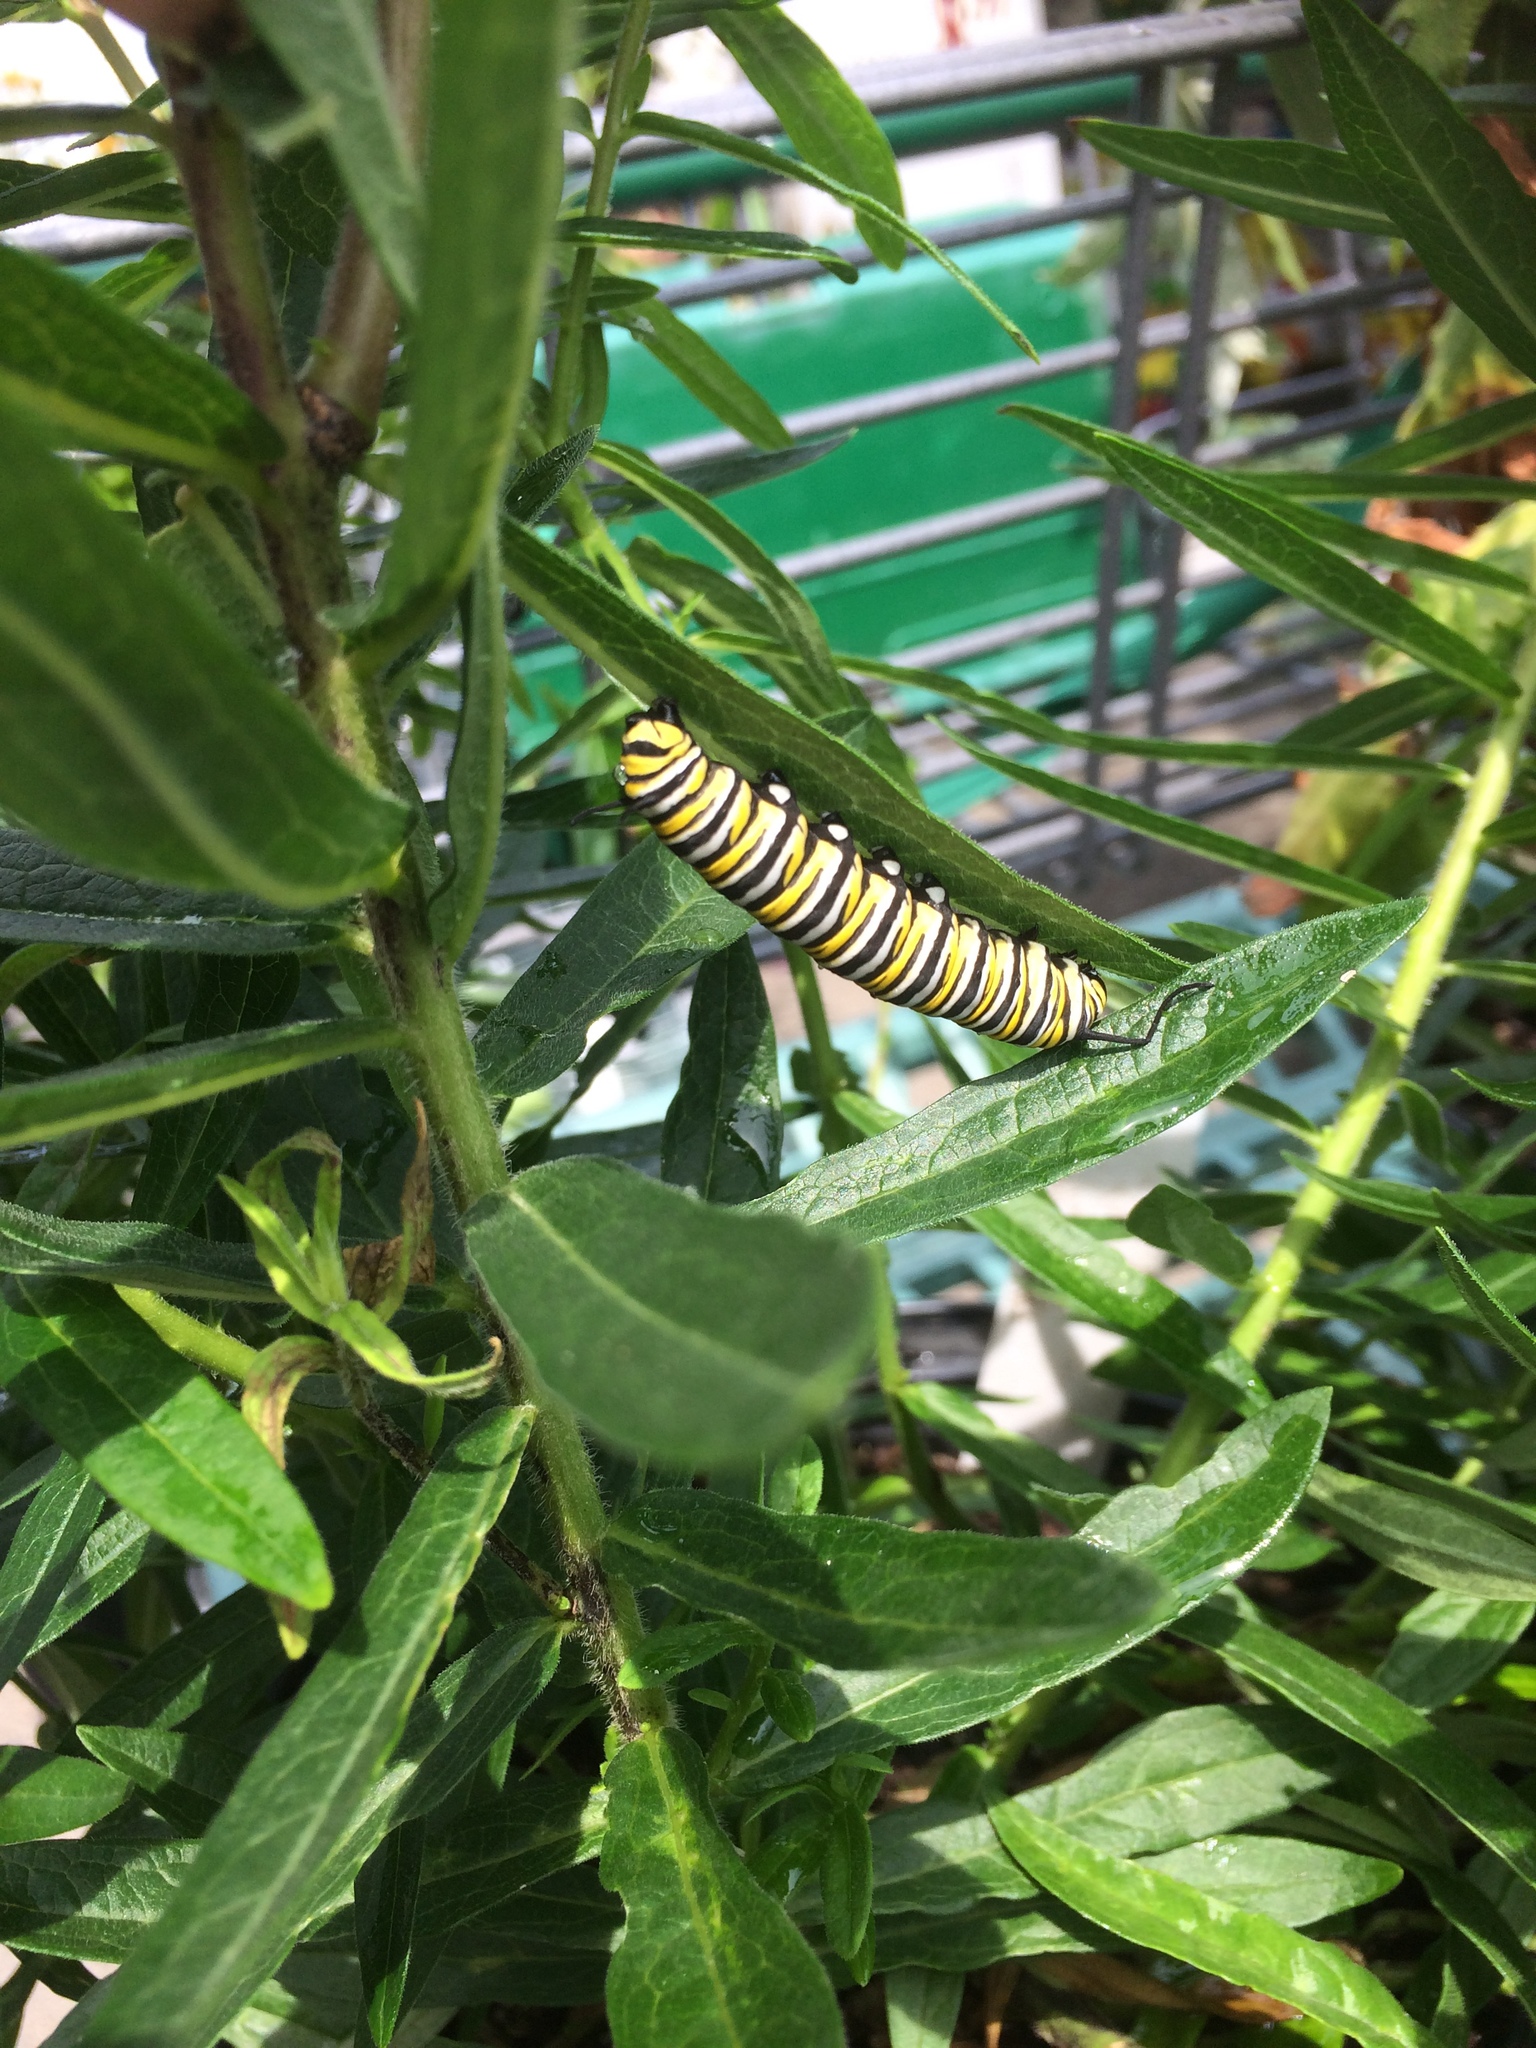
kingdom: Animalia
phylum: Arthropoda
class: Insecta
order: Lepidoptera
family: Nymphalidae
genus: Danaus
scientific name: Danaus plexippus
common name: Monarch
